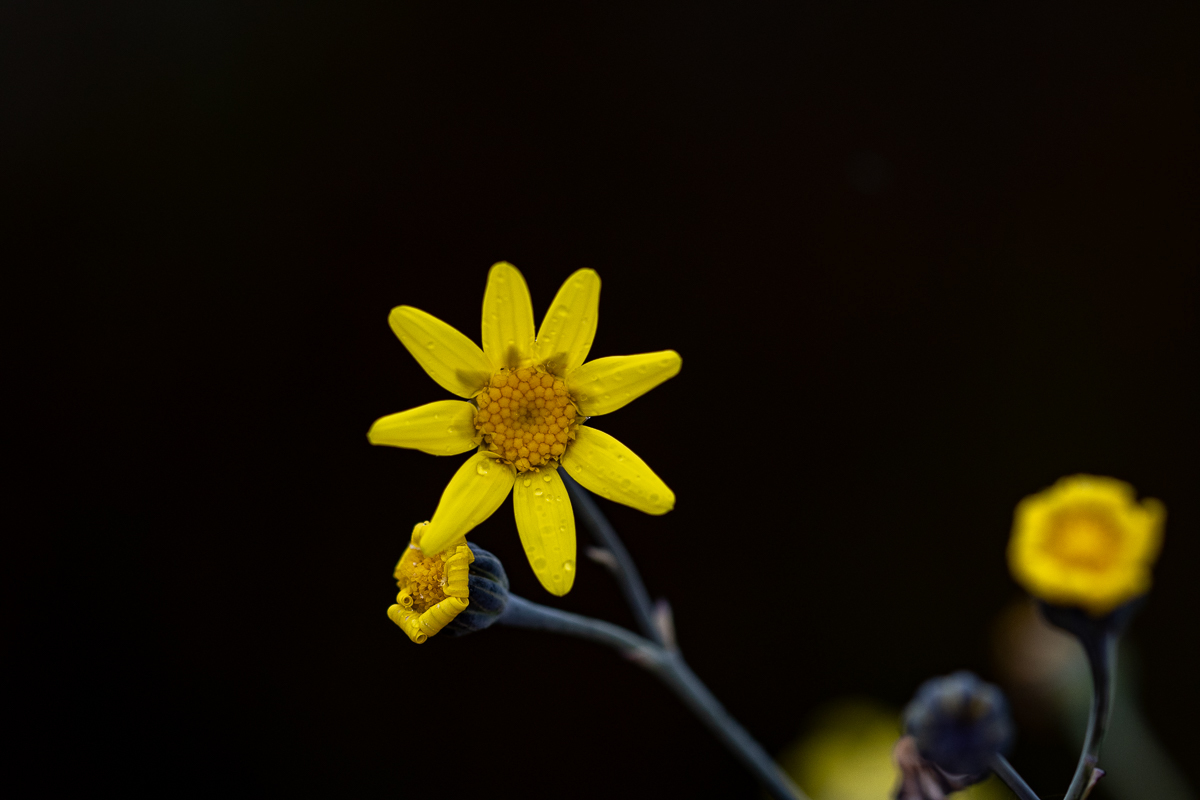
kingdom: Plantae
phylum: Tracheophyta
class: Magnoliopsida
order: Asterales
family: Asteraceae
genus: Othonna
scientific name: Othonna quinquedentata
